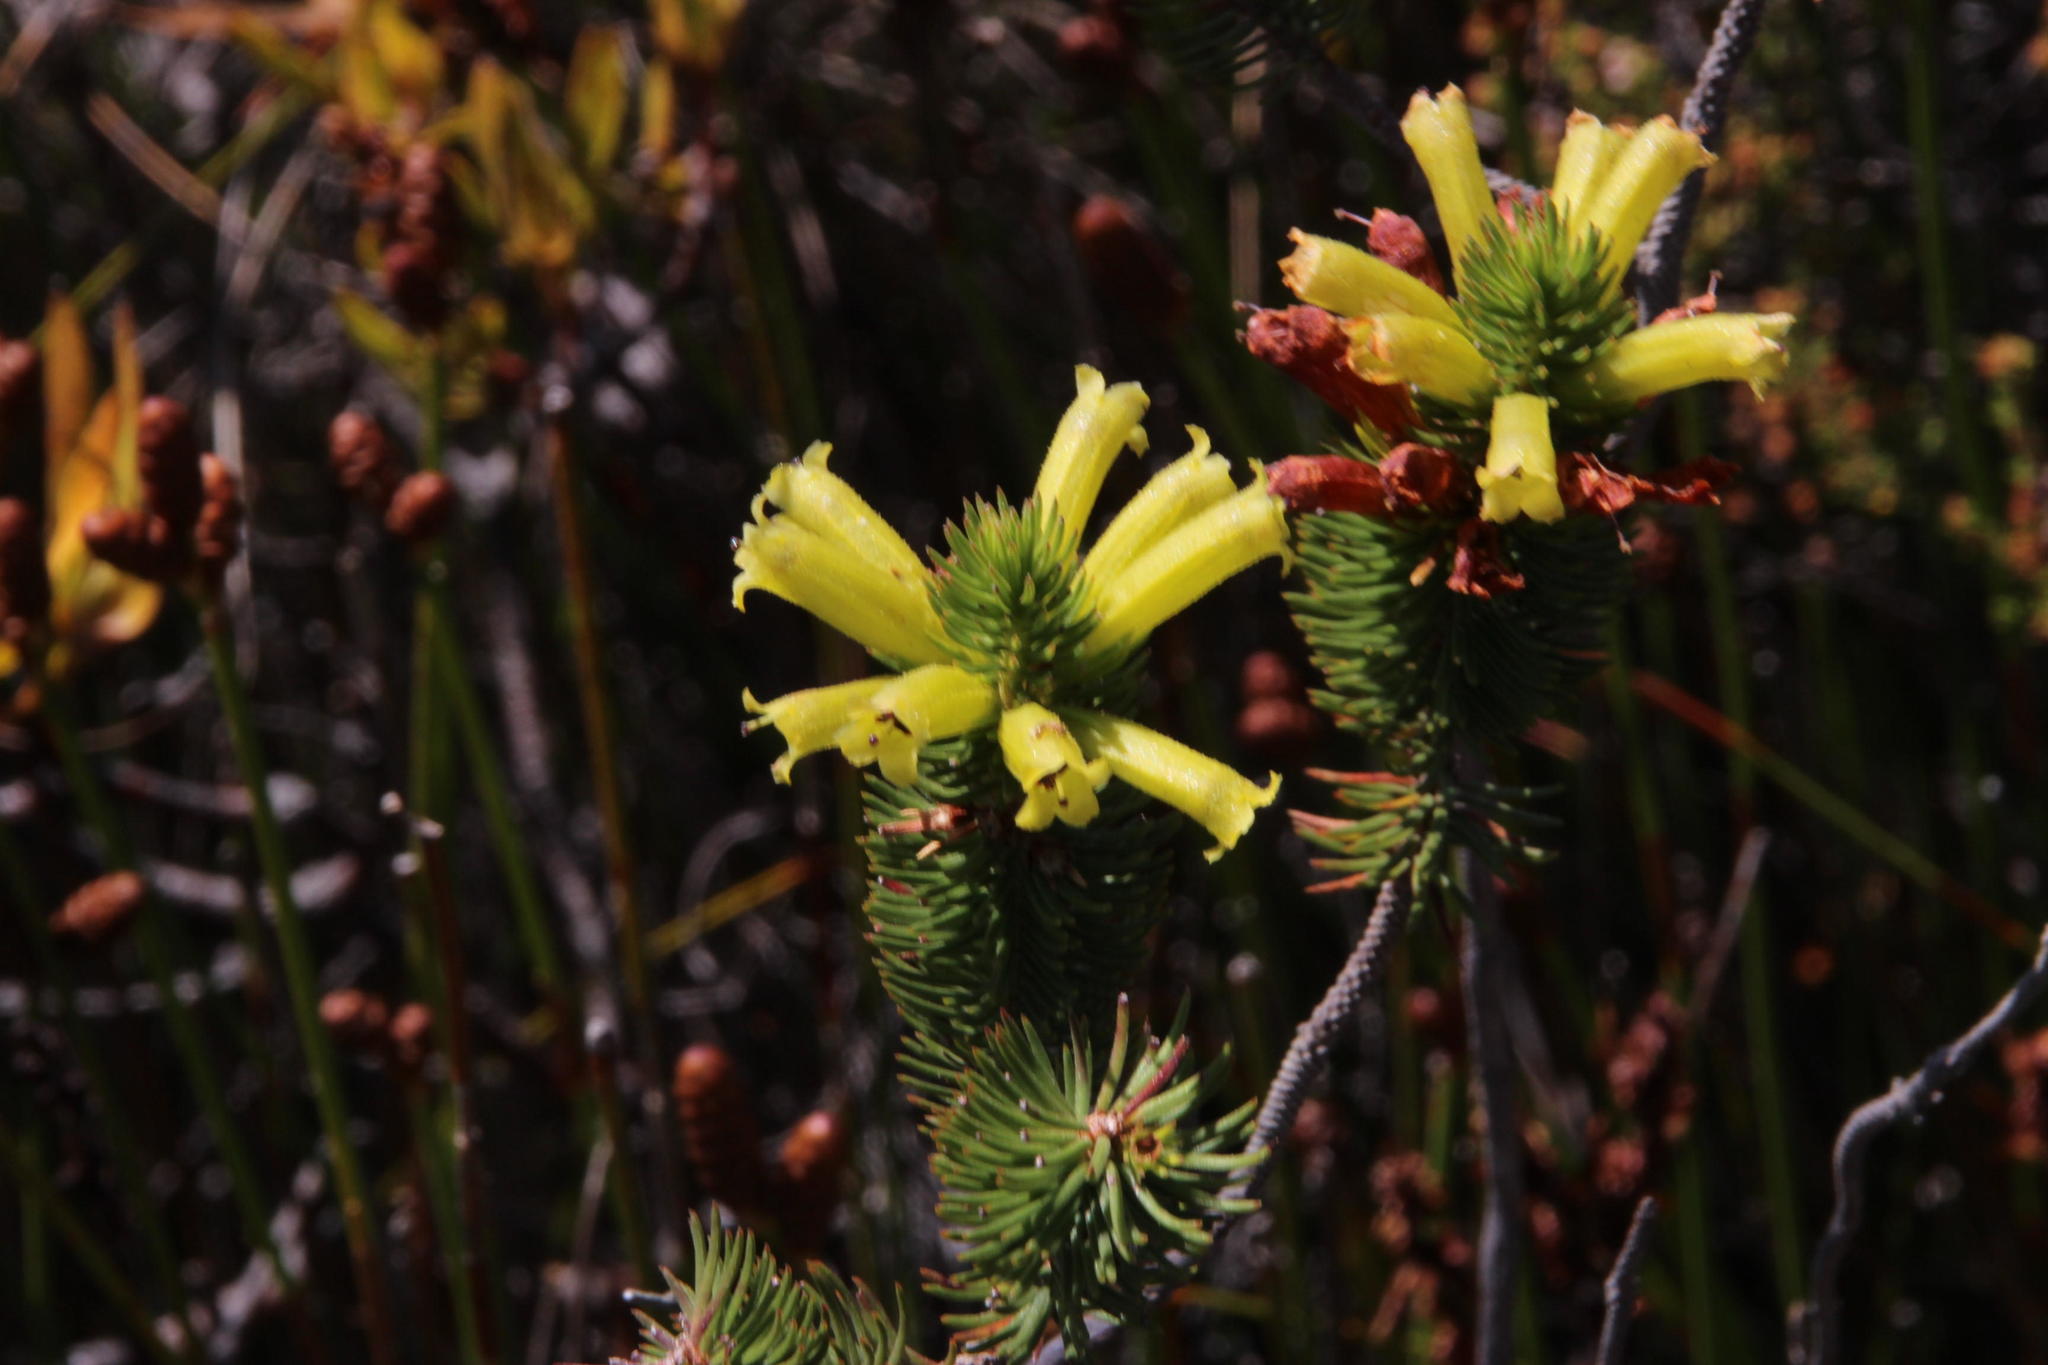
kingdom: Plantae
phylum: Tracheophyta
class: Magnoliopsida
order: Ericales
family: Ericaceae
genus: Erica
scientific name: Erica viscaria
